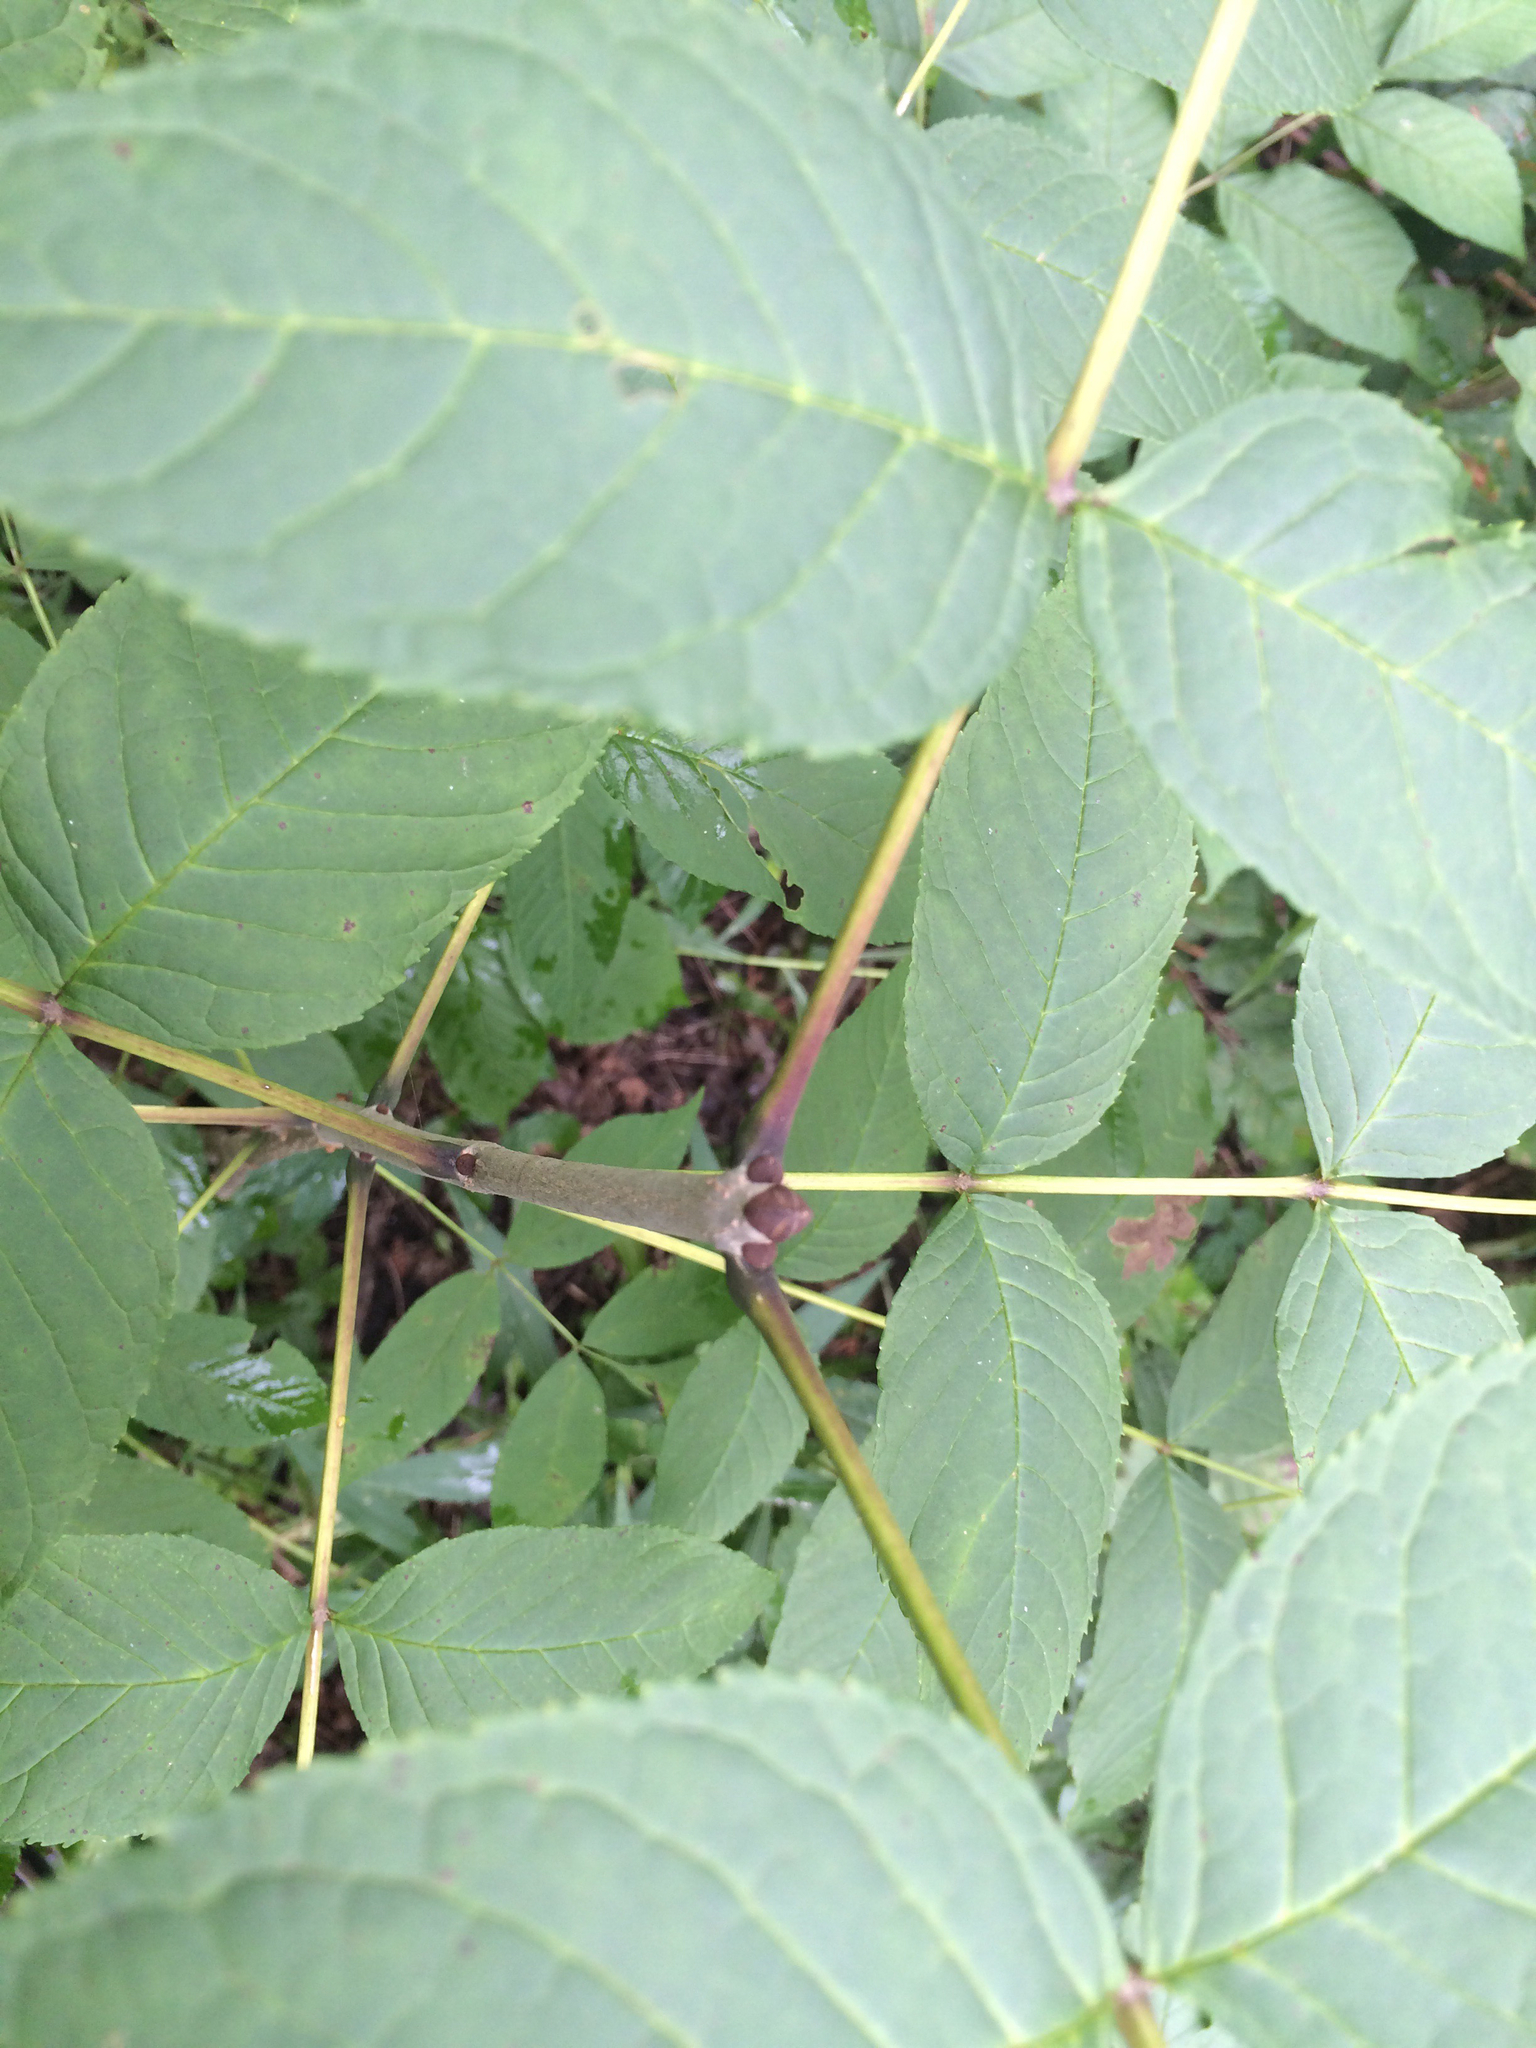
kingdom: Plantae
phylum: Tracheophyta
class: Magnoliopsida
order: Lamiales
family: Oleaceae
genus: Fraxinus
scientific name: Fraxinus nigra
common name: Black ash
